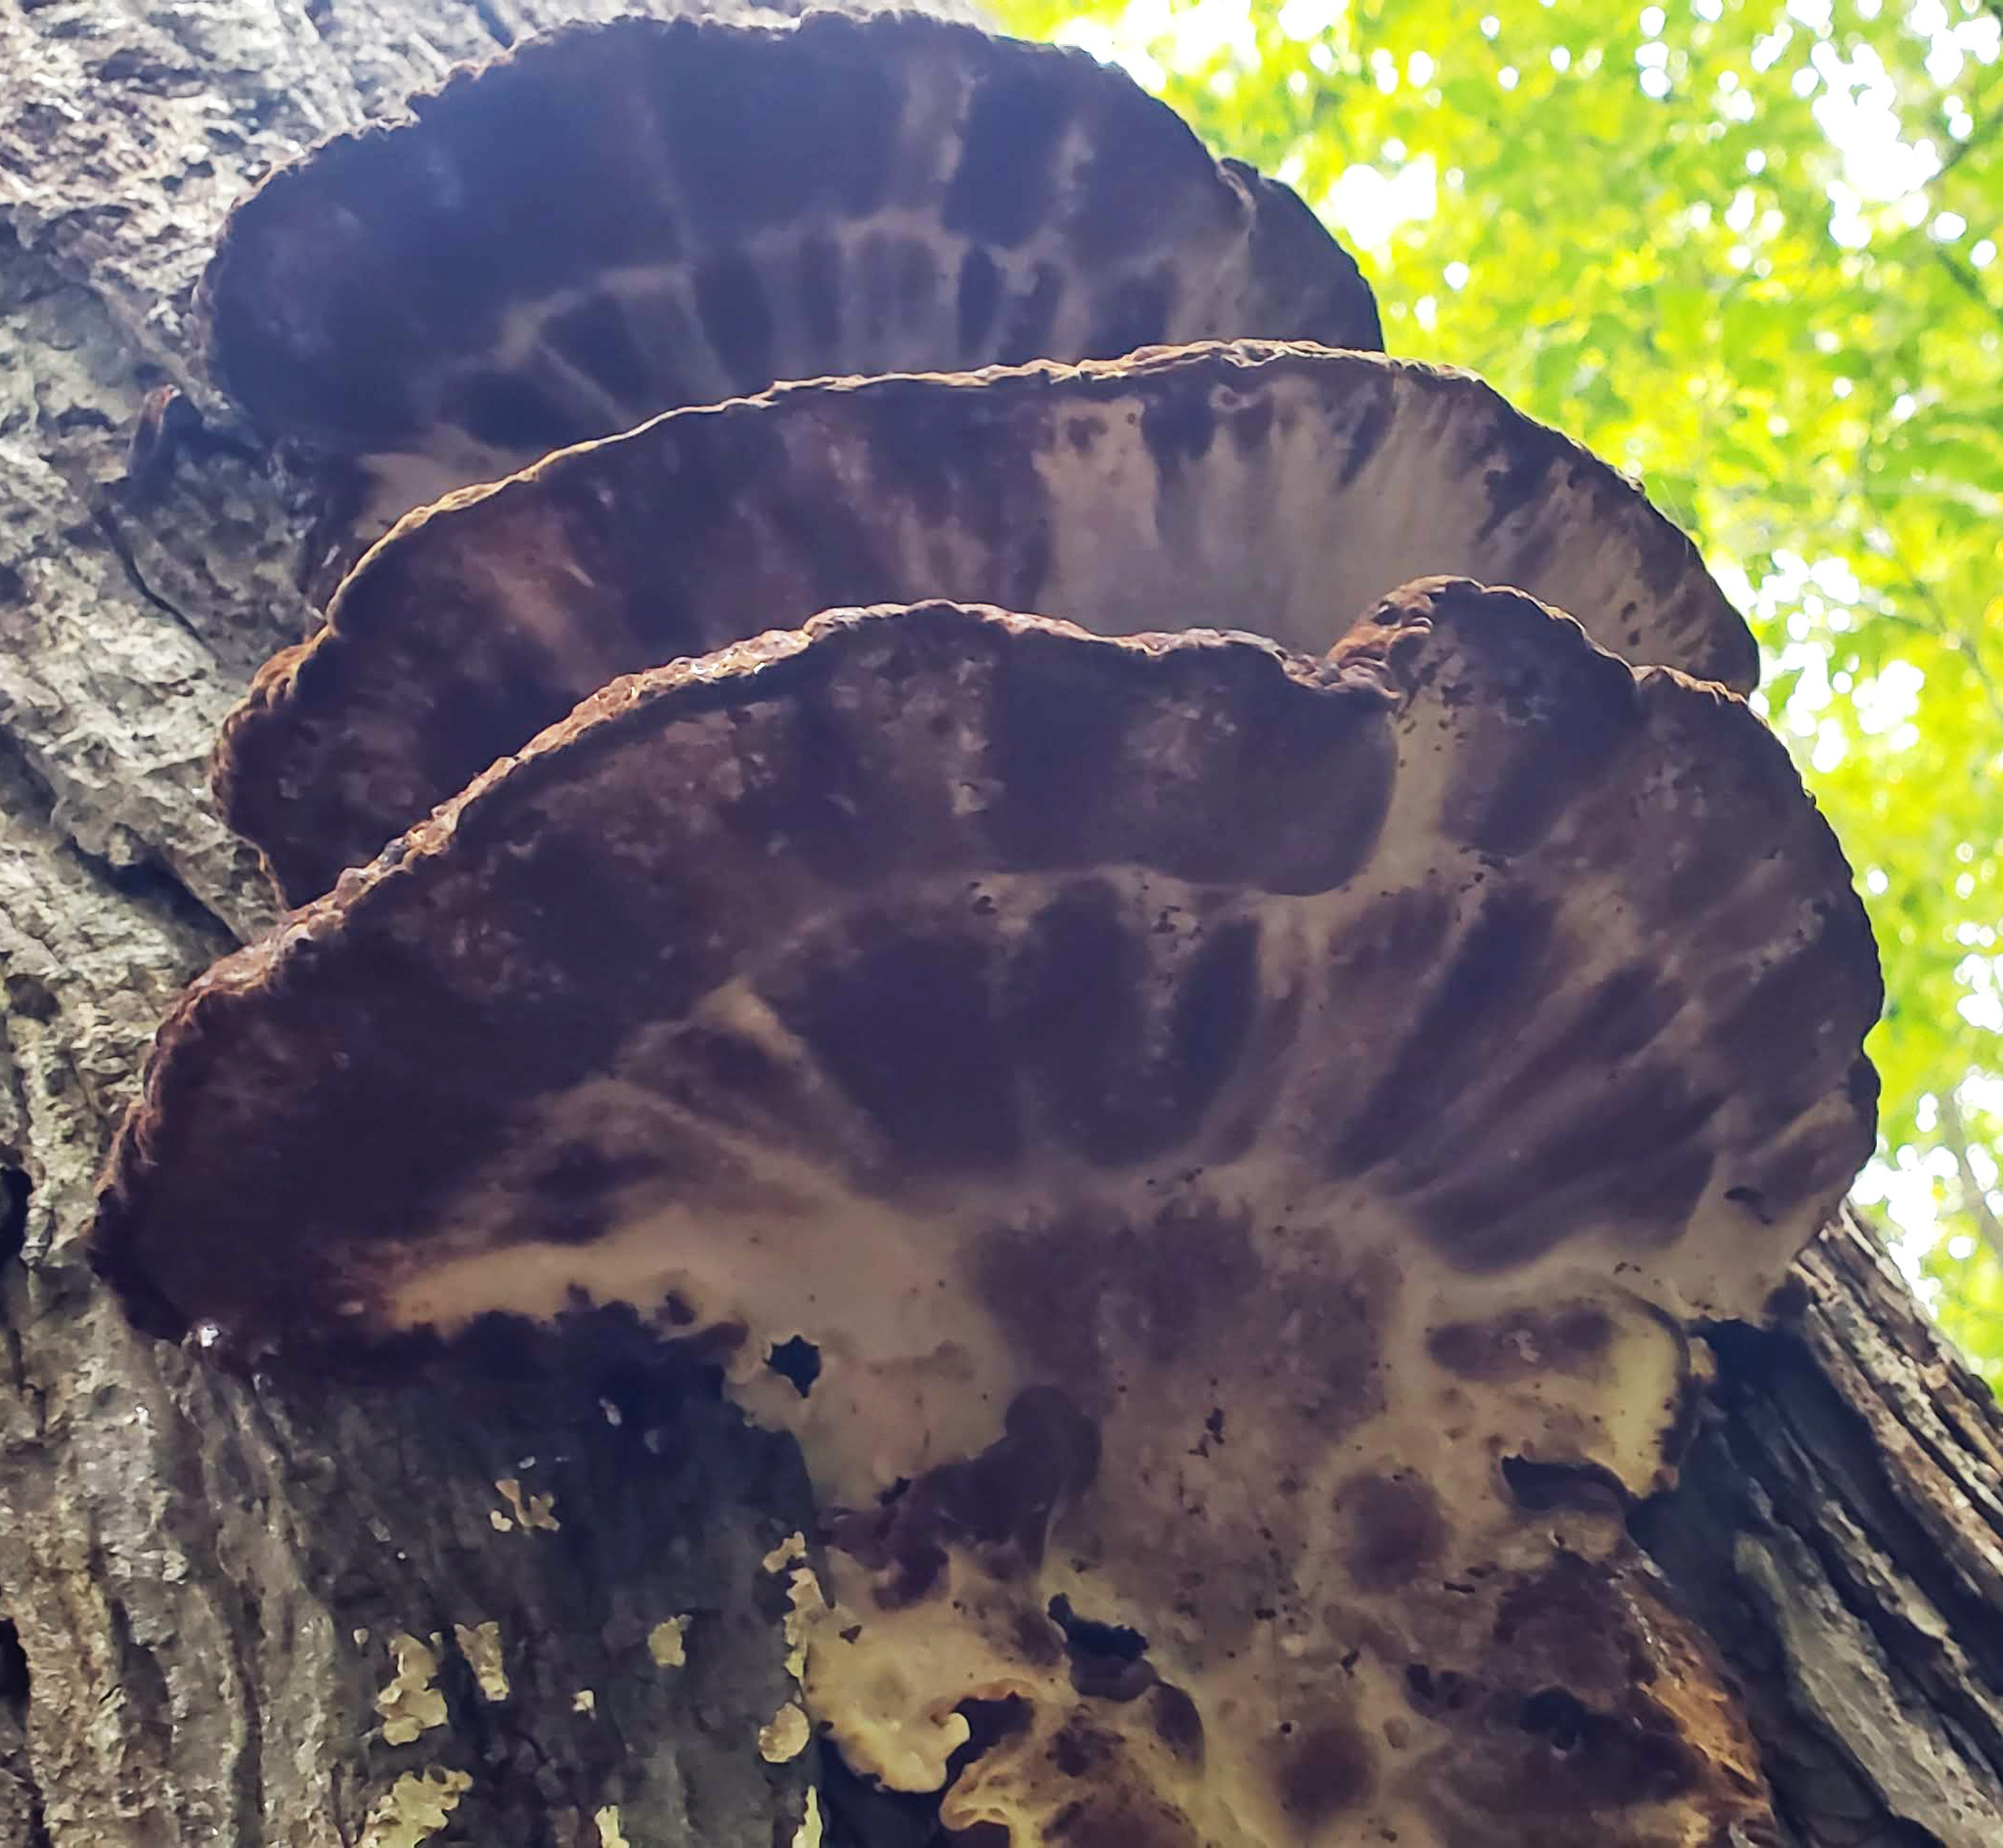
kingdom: Fungi
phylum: Basidiomycota
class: Agaricomycetes
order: Polyporales
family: Ischnodermataceae
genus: Ischnoderma
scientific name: Ischnoderma resinosum
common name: Resinous polypore
